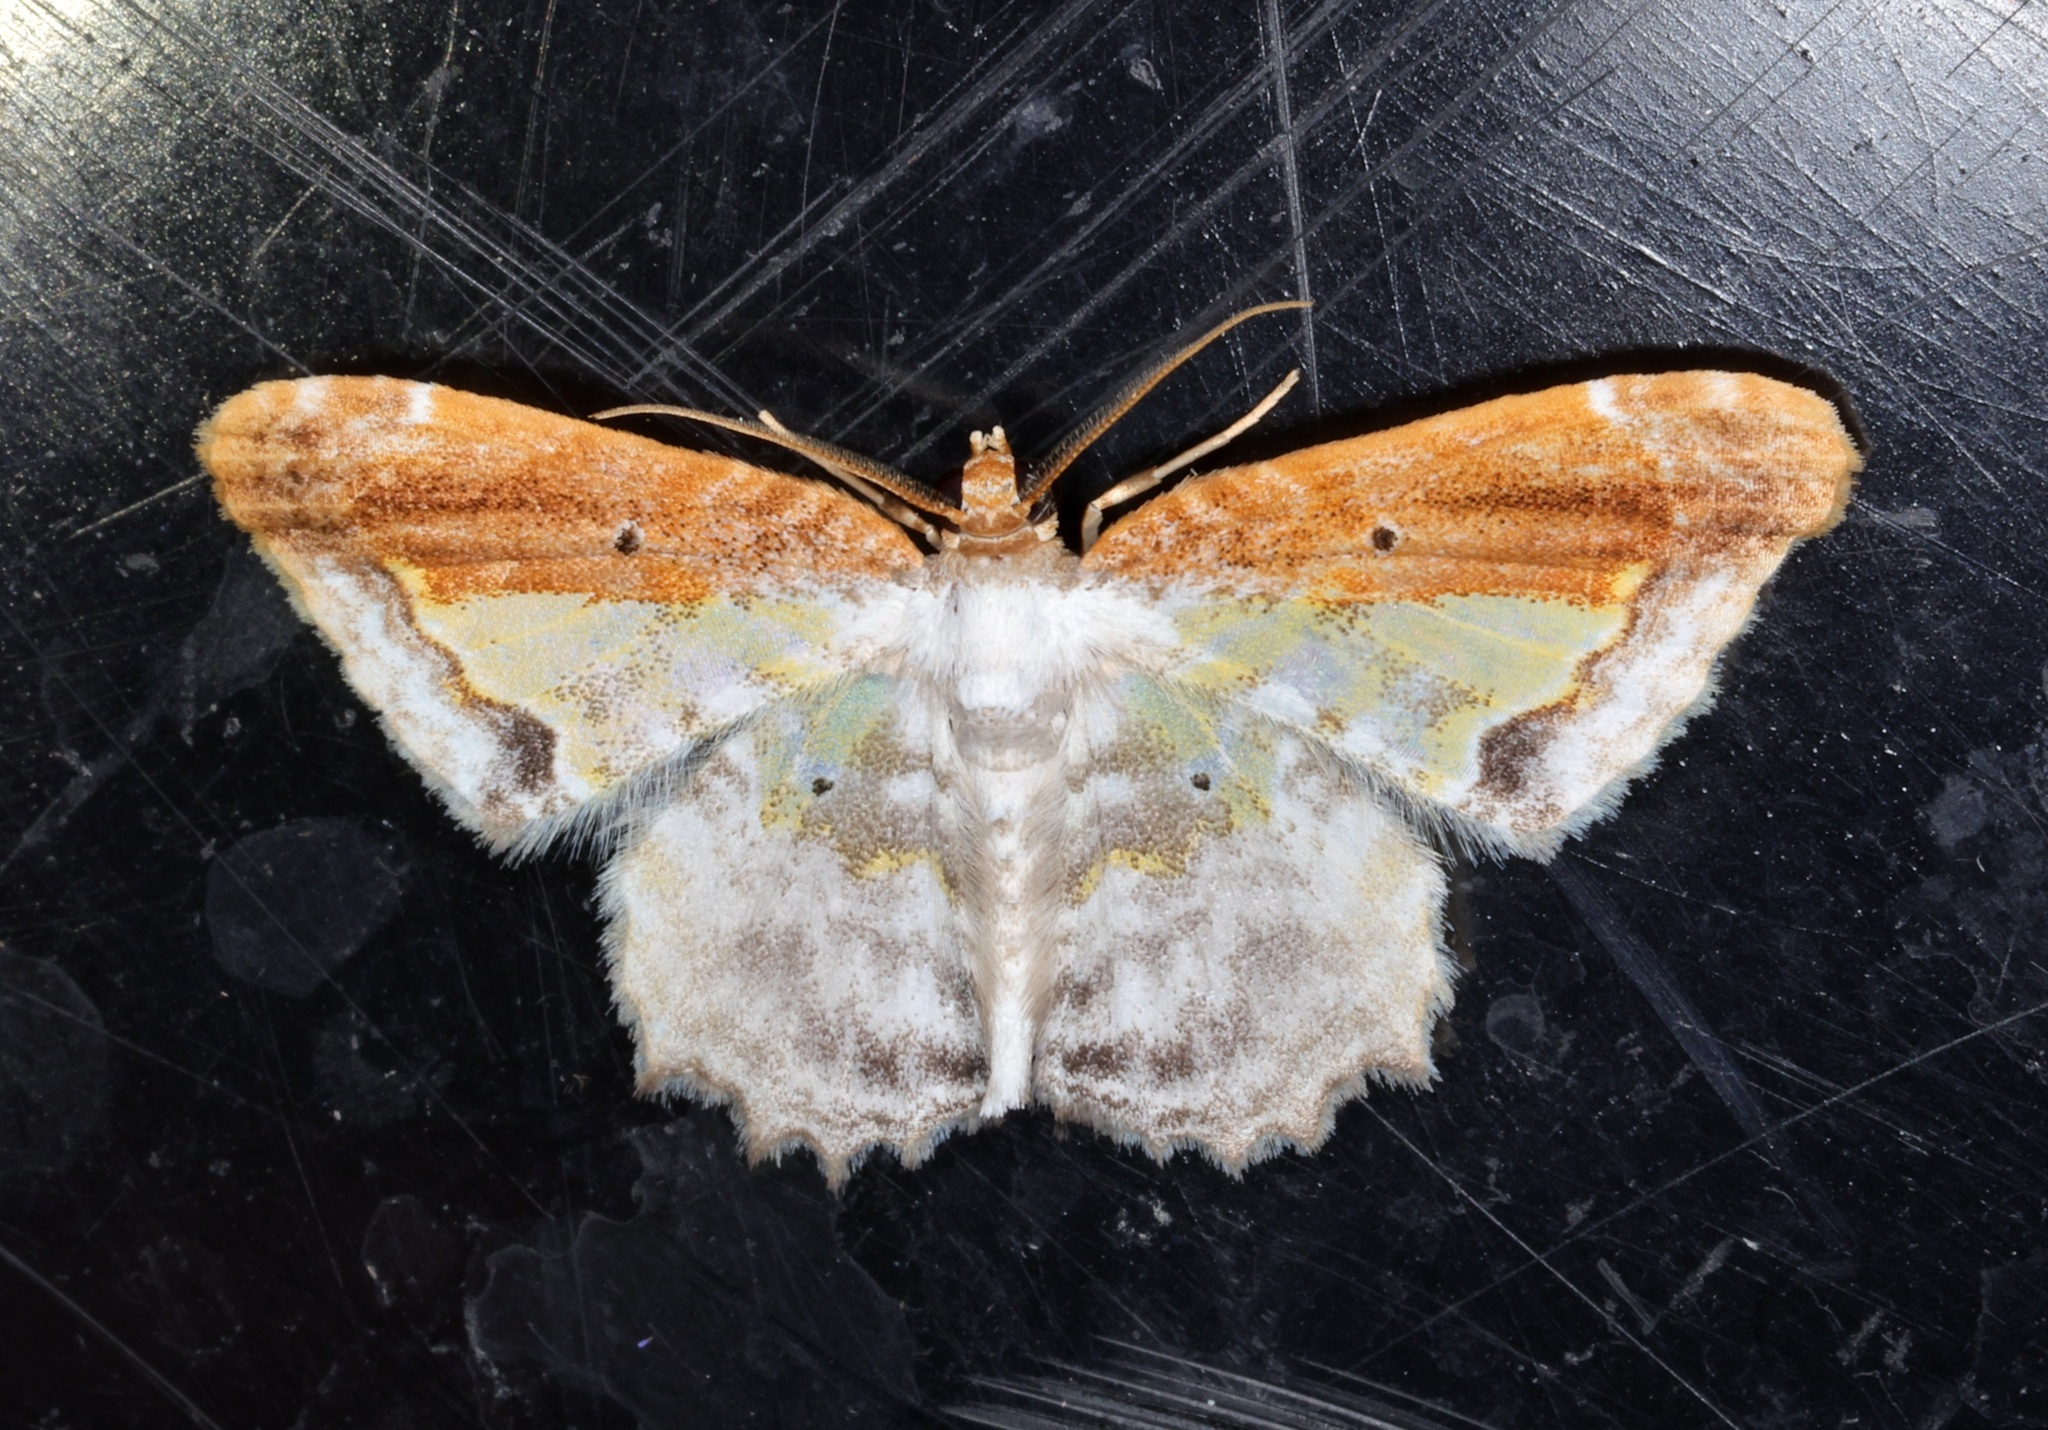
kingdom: Animalia
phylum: Arthropoda
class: Insecta
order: Lepidoptera
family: Geometridae
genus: Acolutha
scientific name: Acolutha pulchella
